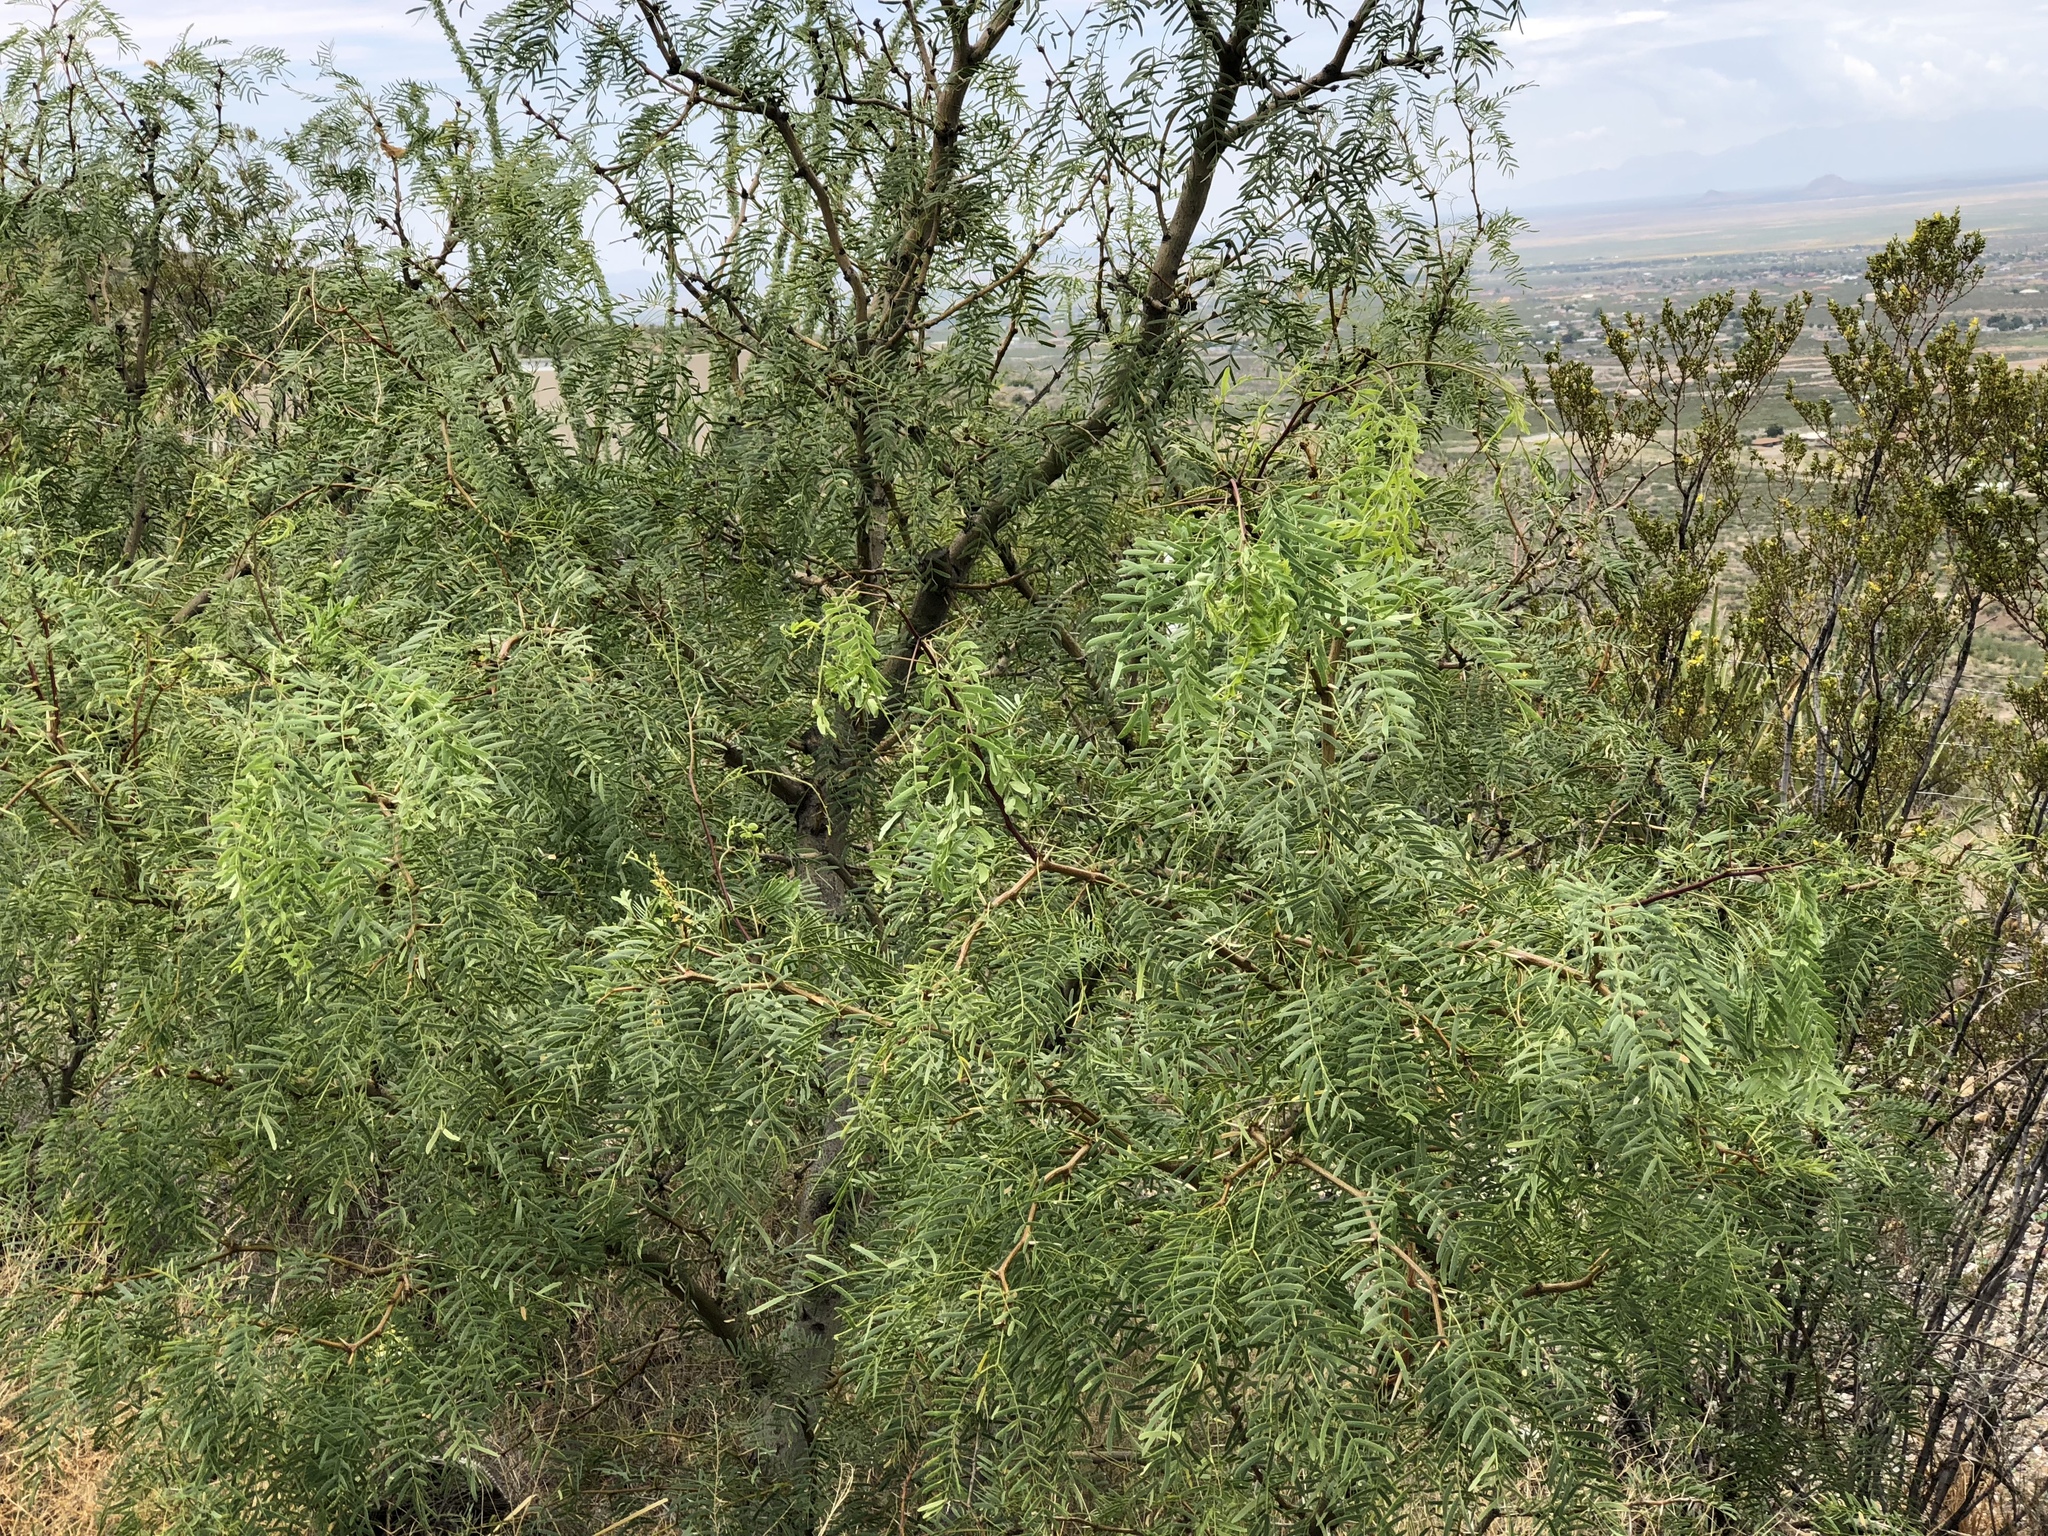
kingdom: Plantae
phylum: Tracheophyta
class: Magnoliopsida
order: Fabales
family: Fabaceae
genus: Prosopis
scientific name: Prosopis glandulosa
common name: Honey mesquite
